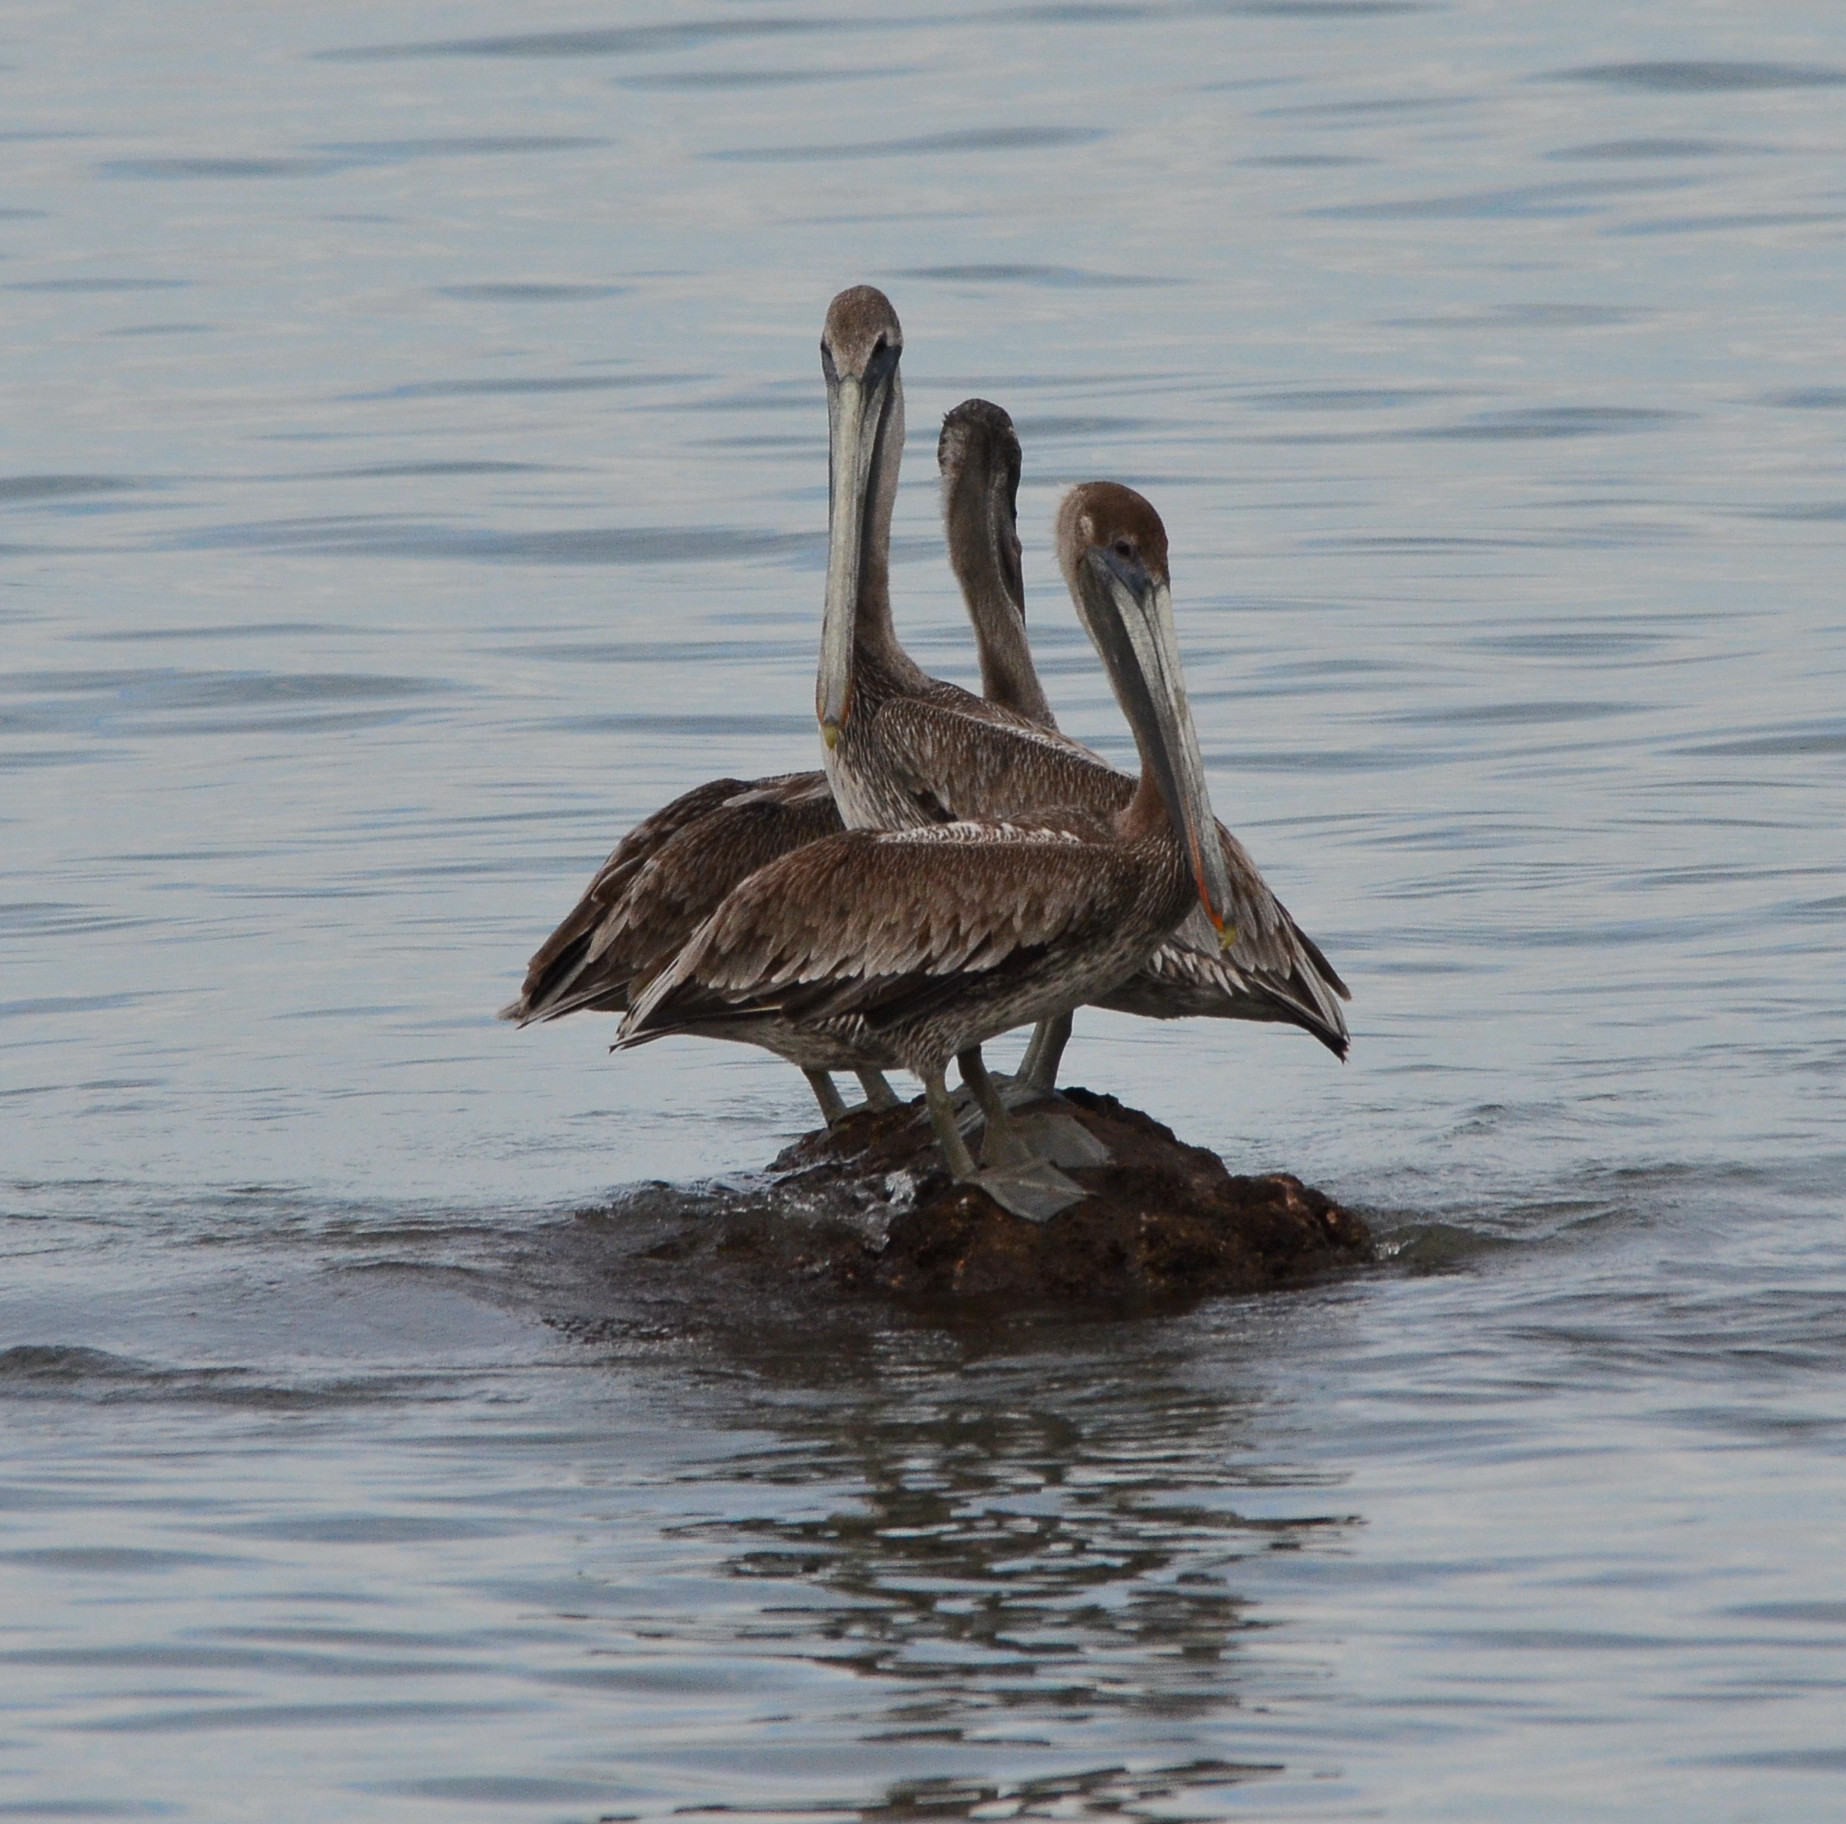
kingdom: Animalia
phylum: Chordata
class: Aves
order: Pelecaniformes
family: Pelecanidae
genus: Pelecanus
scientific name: Pelecanus occidentalis
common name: Brown pelican
